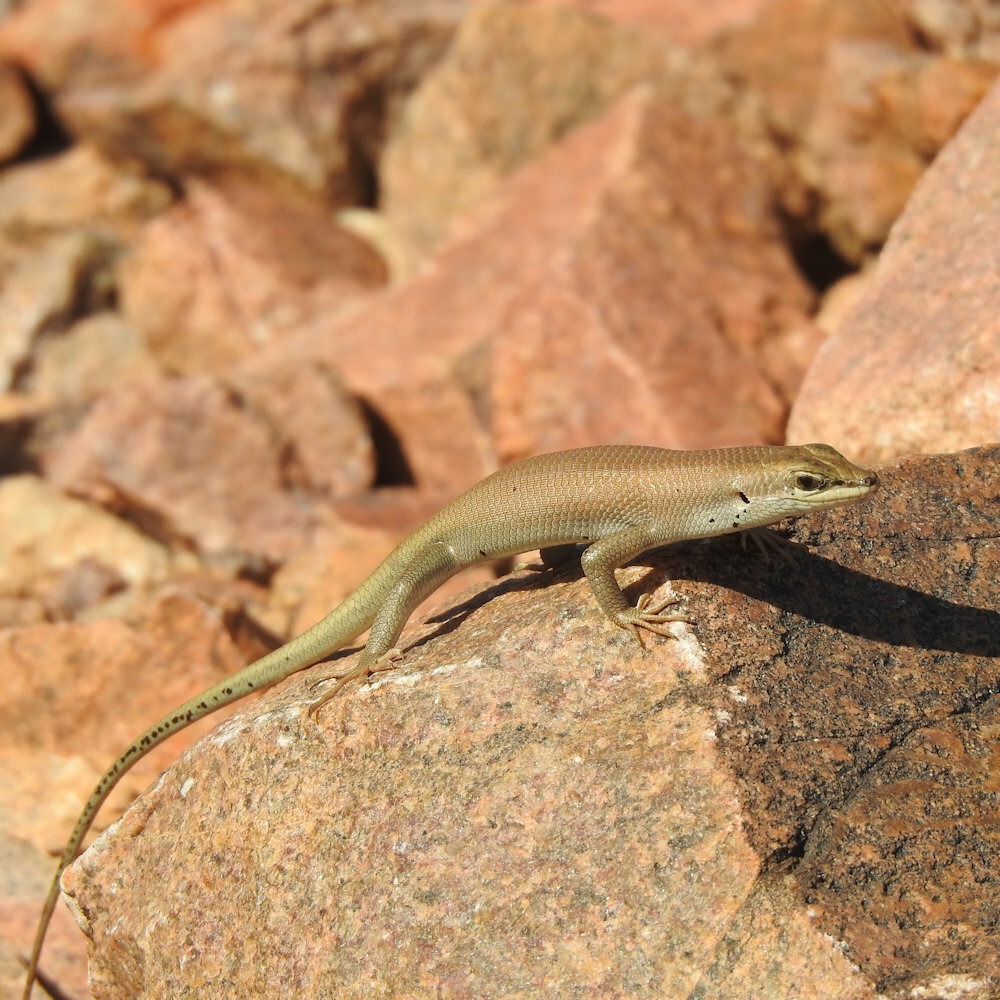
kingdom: Animalia
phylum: Chordata
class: Squamata
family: Scincidae
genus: Trachylepis
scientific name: Trachylepis sulcata
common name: Western rock skink
